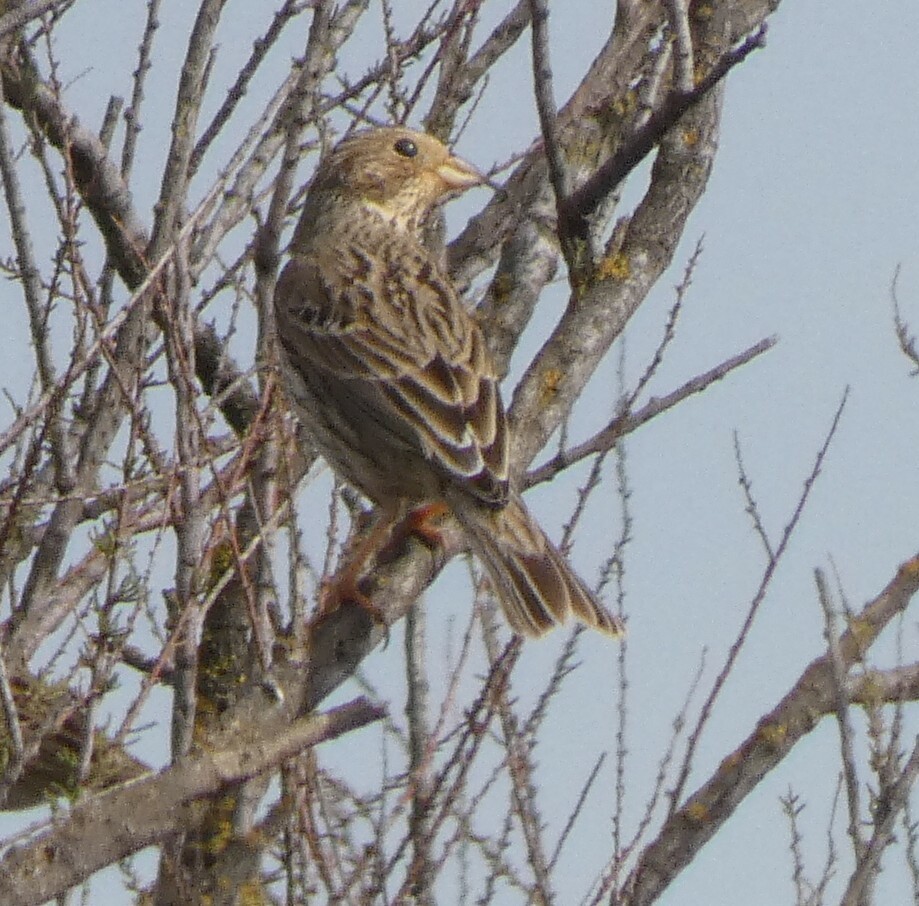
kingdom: Animalia
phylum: Chordata
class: Aves
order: Passeriformes
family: Emberizidae
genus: Emberiza
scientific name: Emberiza calandra
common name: Corn bunting
